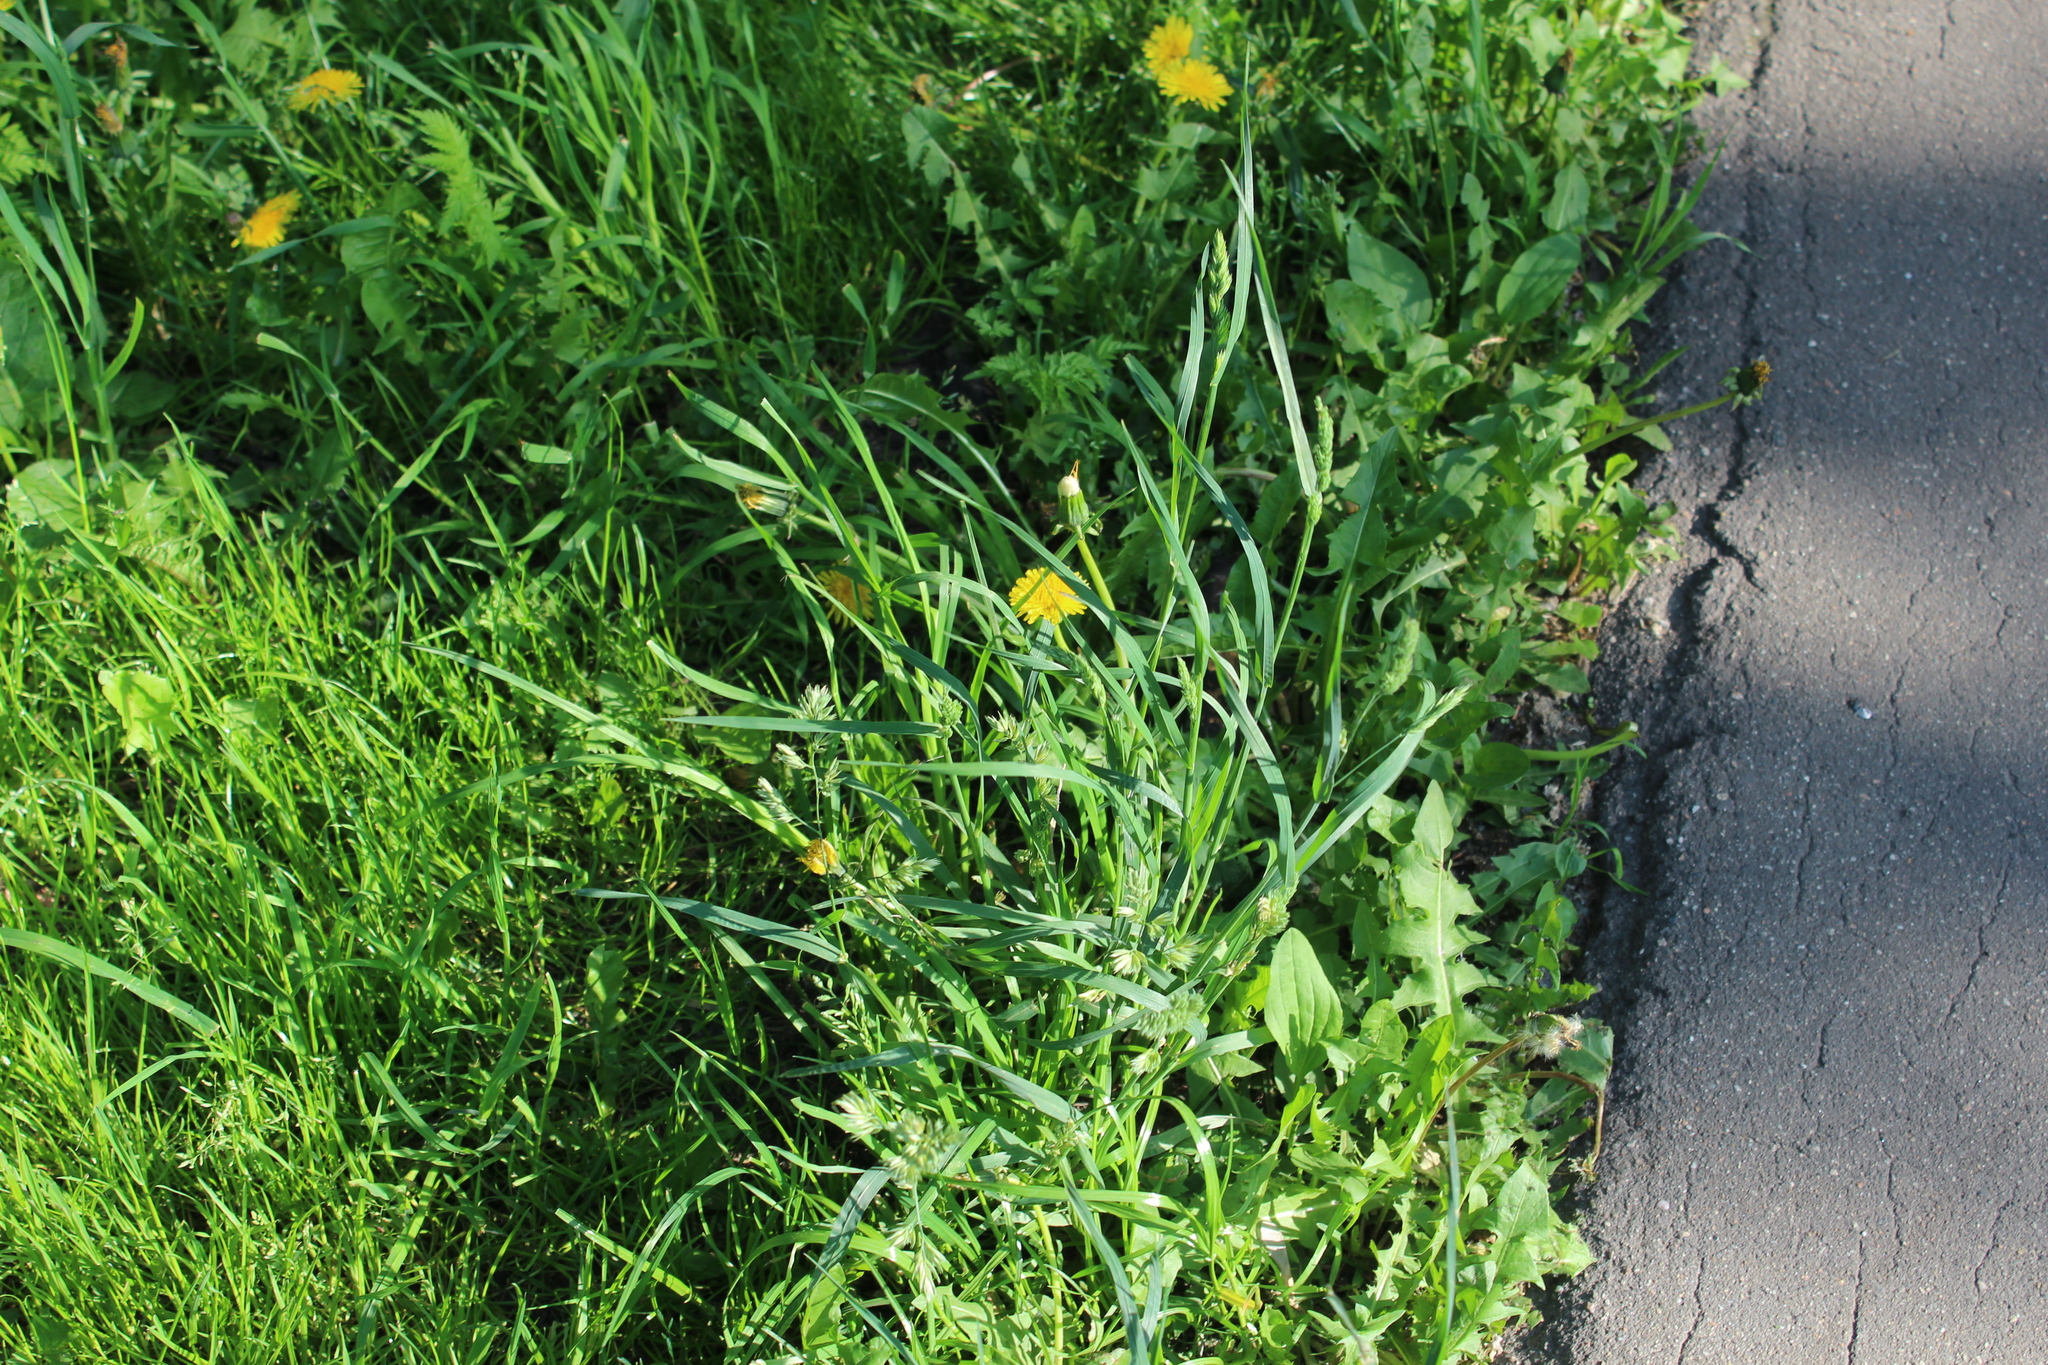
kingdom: Plantae
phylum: Tracheophyta
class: Liliopsida
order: Poales
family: Poaceae
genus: Dactylis
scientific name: Dactylis glomerata
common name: Orchardgrass
